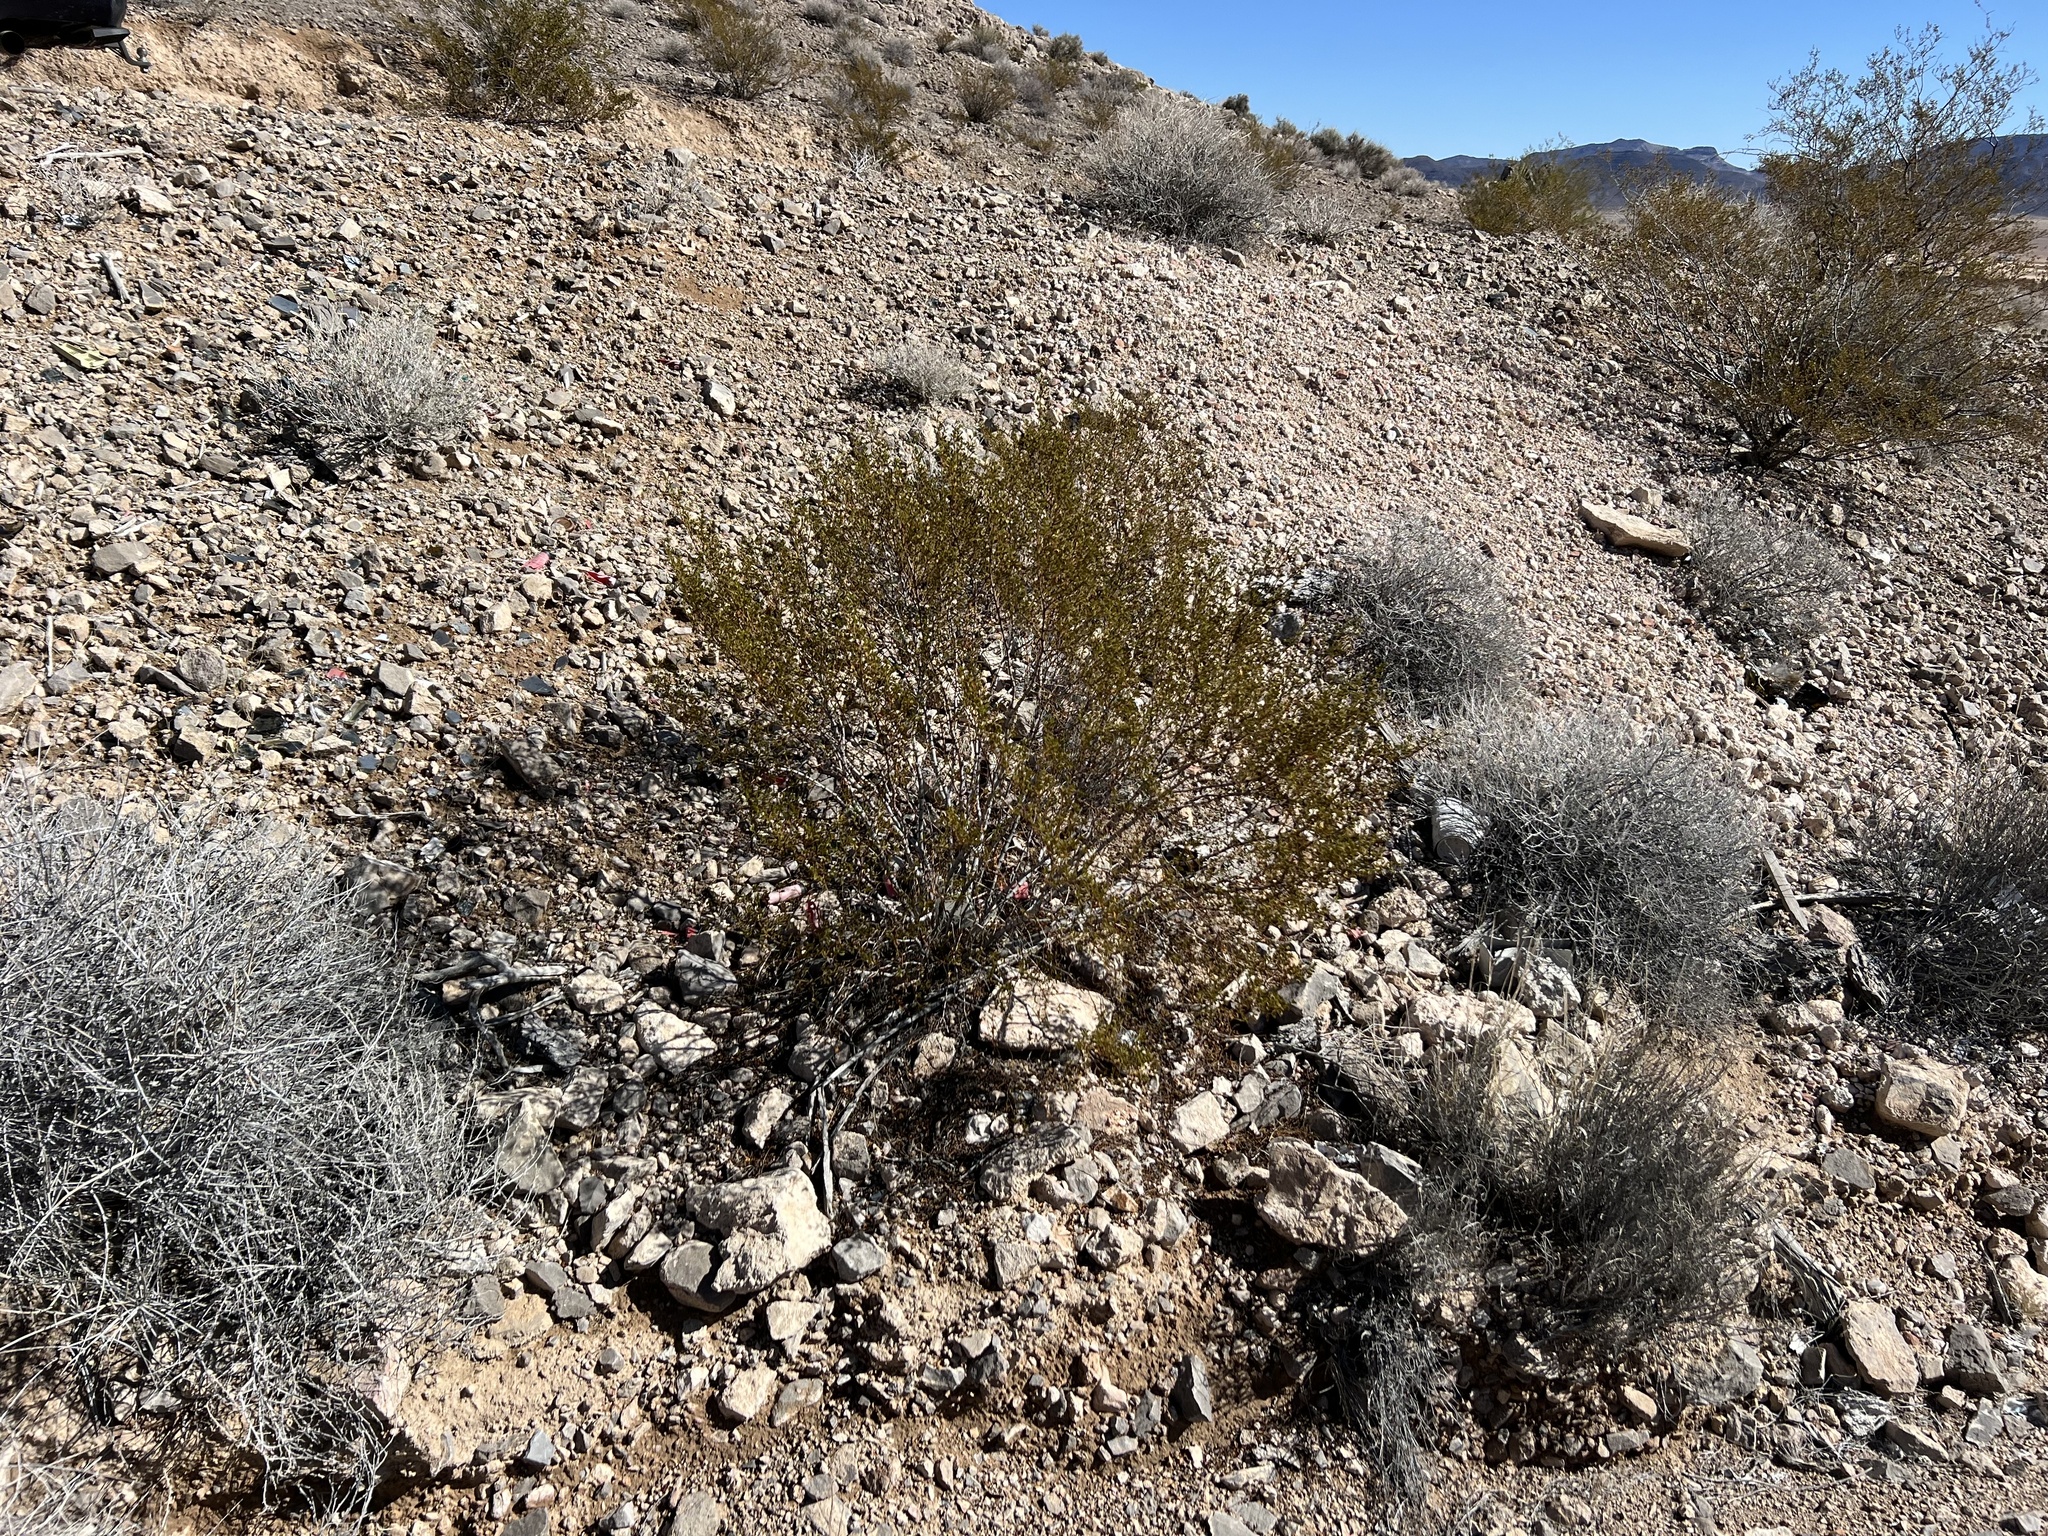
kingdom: Plantae
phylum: Tracheophyta
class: Magnoliopsida
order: Zygophyllales
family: Zygophyllaceae
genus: Larrea
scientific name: Larrea tridentata
